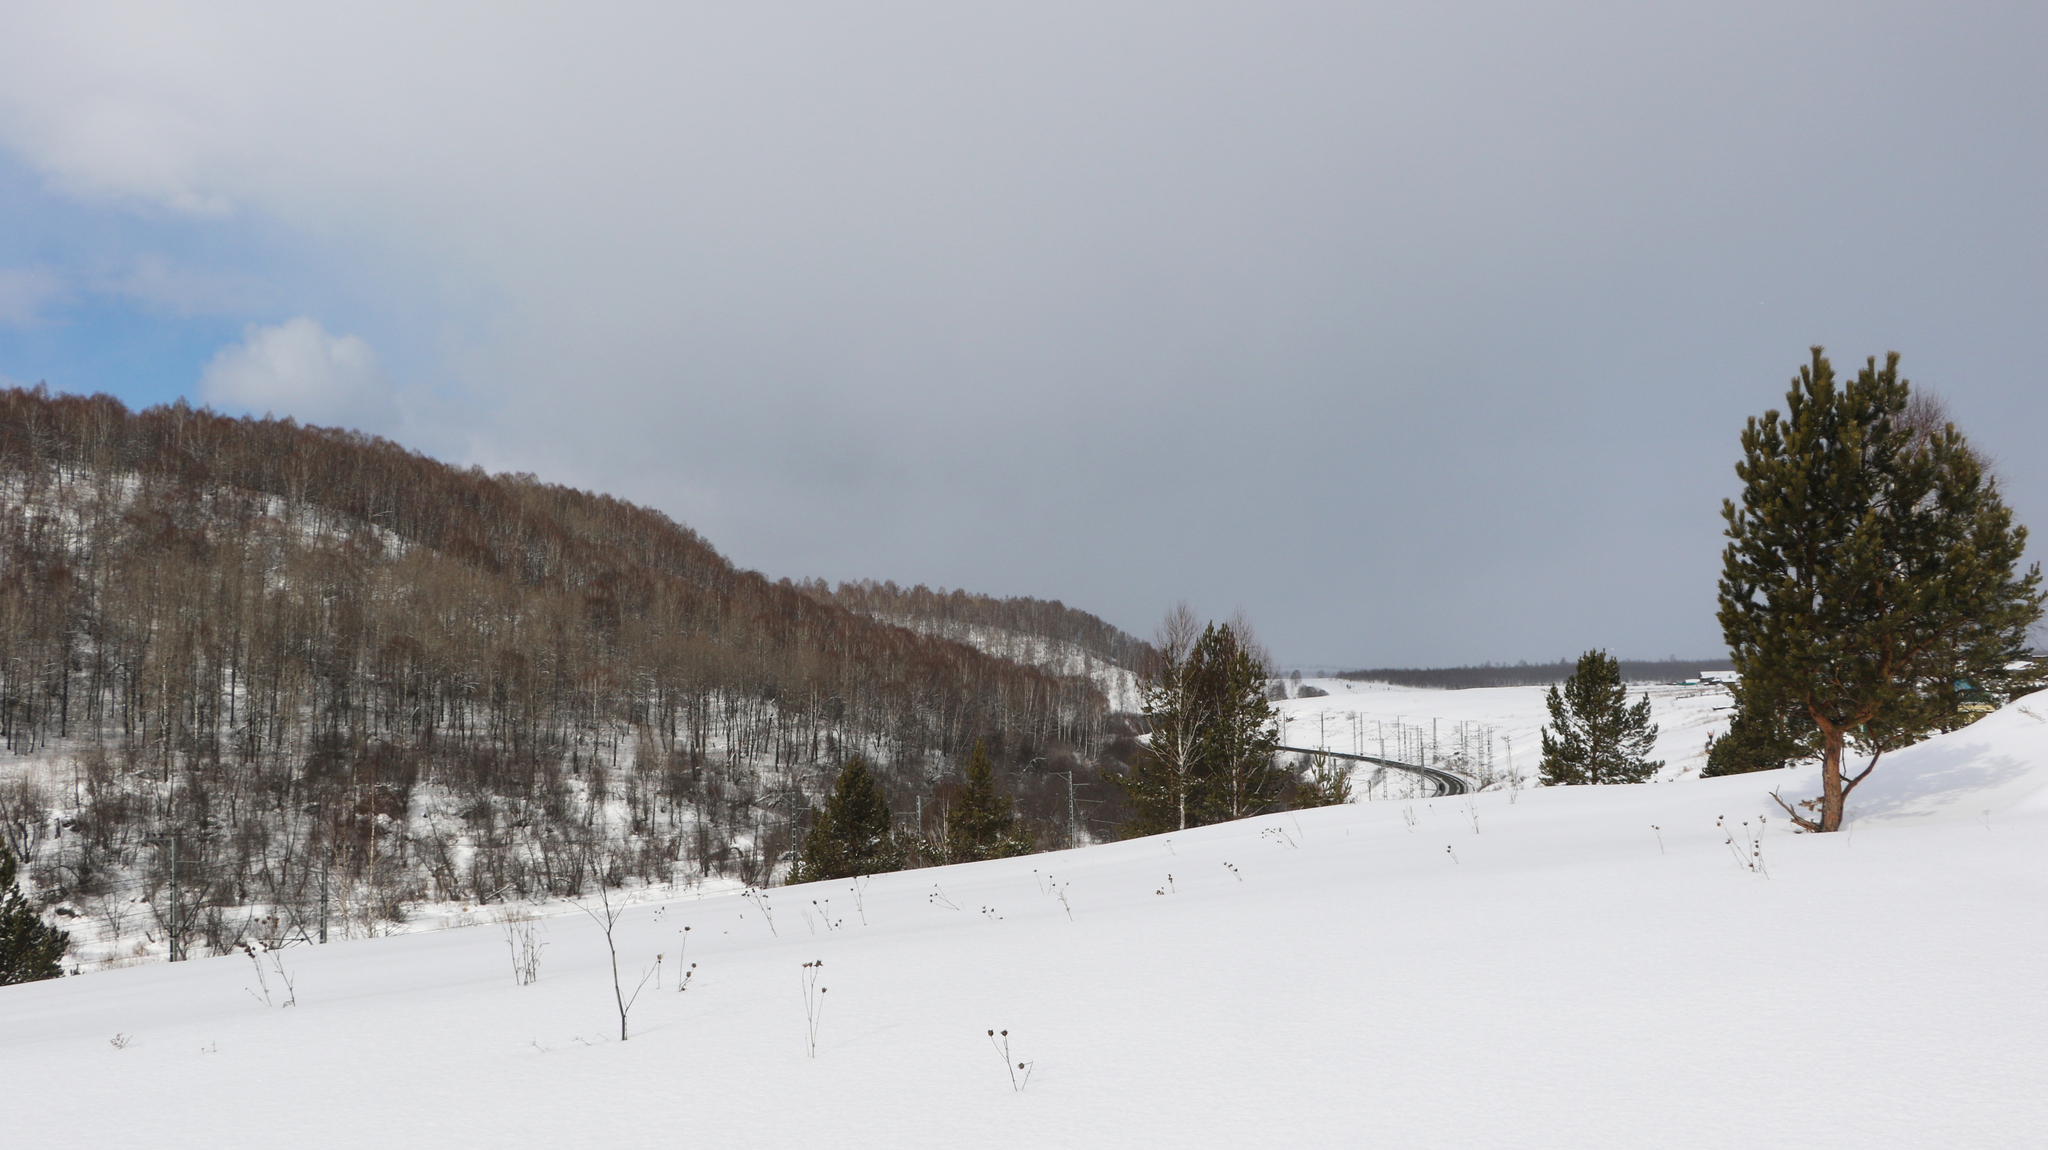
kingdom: Plantae
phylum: Tracheophyta
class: Pinopsida
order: Pinales
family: Pinaceae
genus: Pinus
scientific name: Pinus sylvestris
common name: Scots pine
